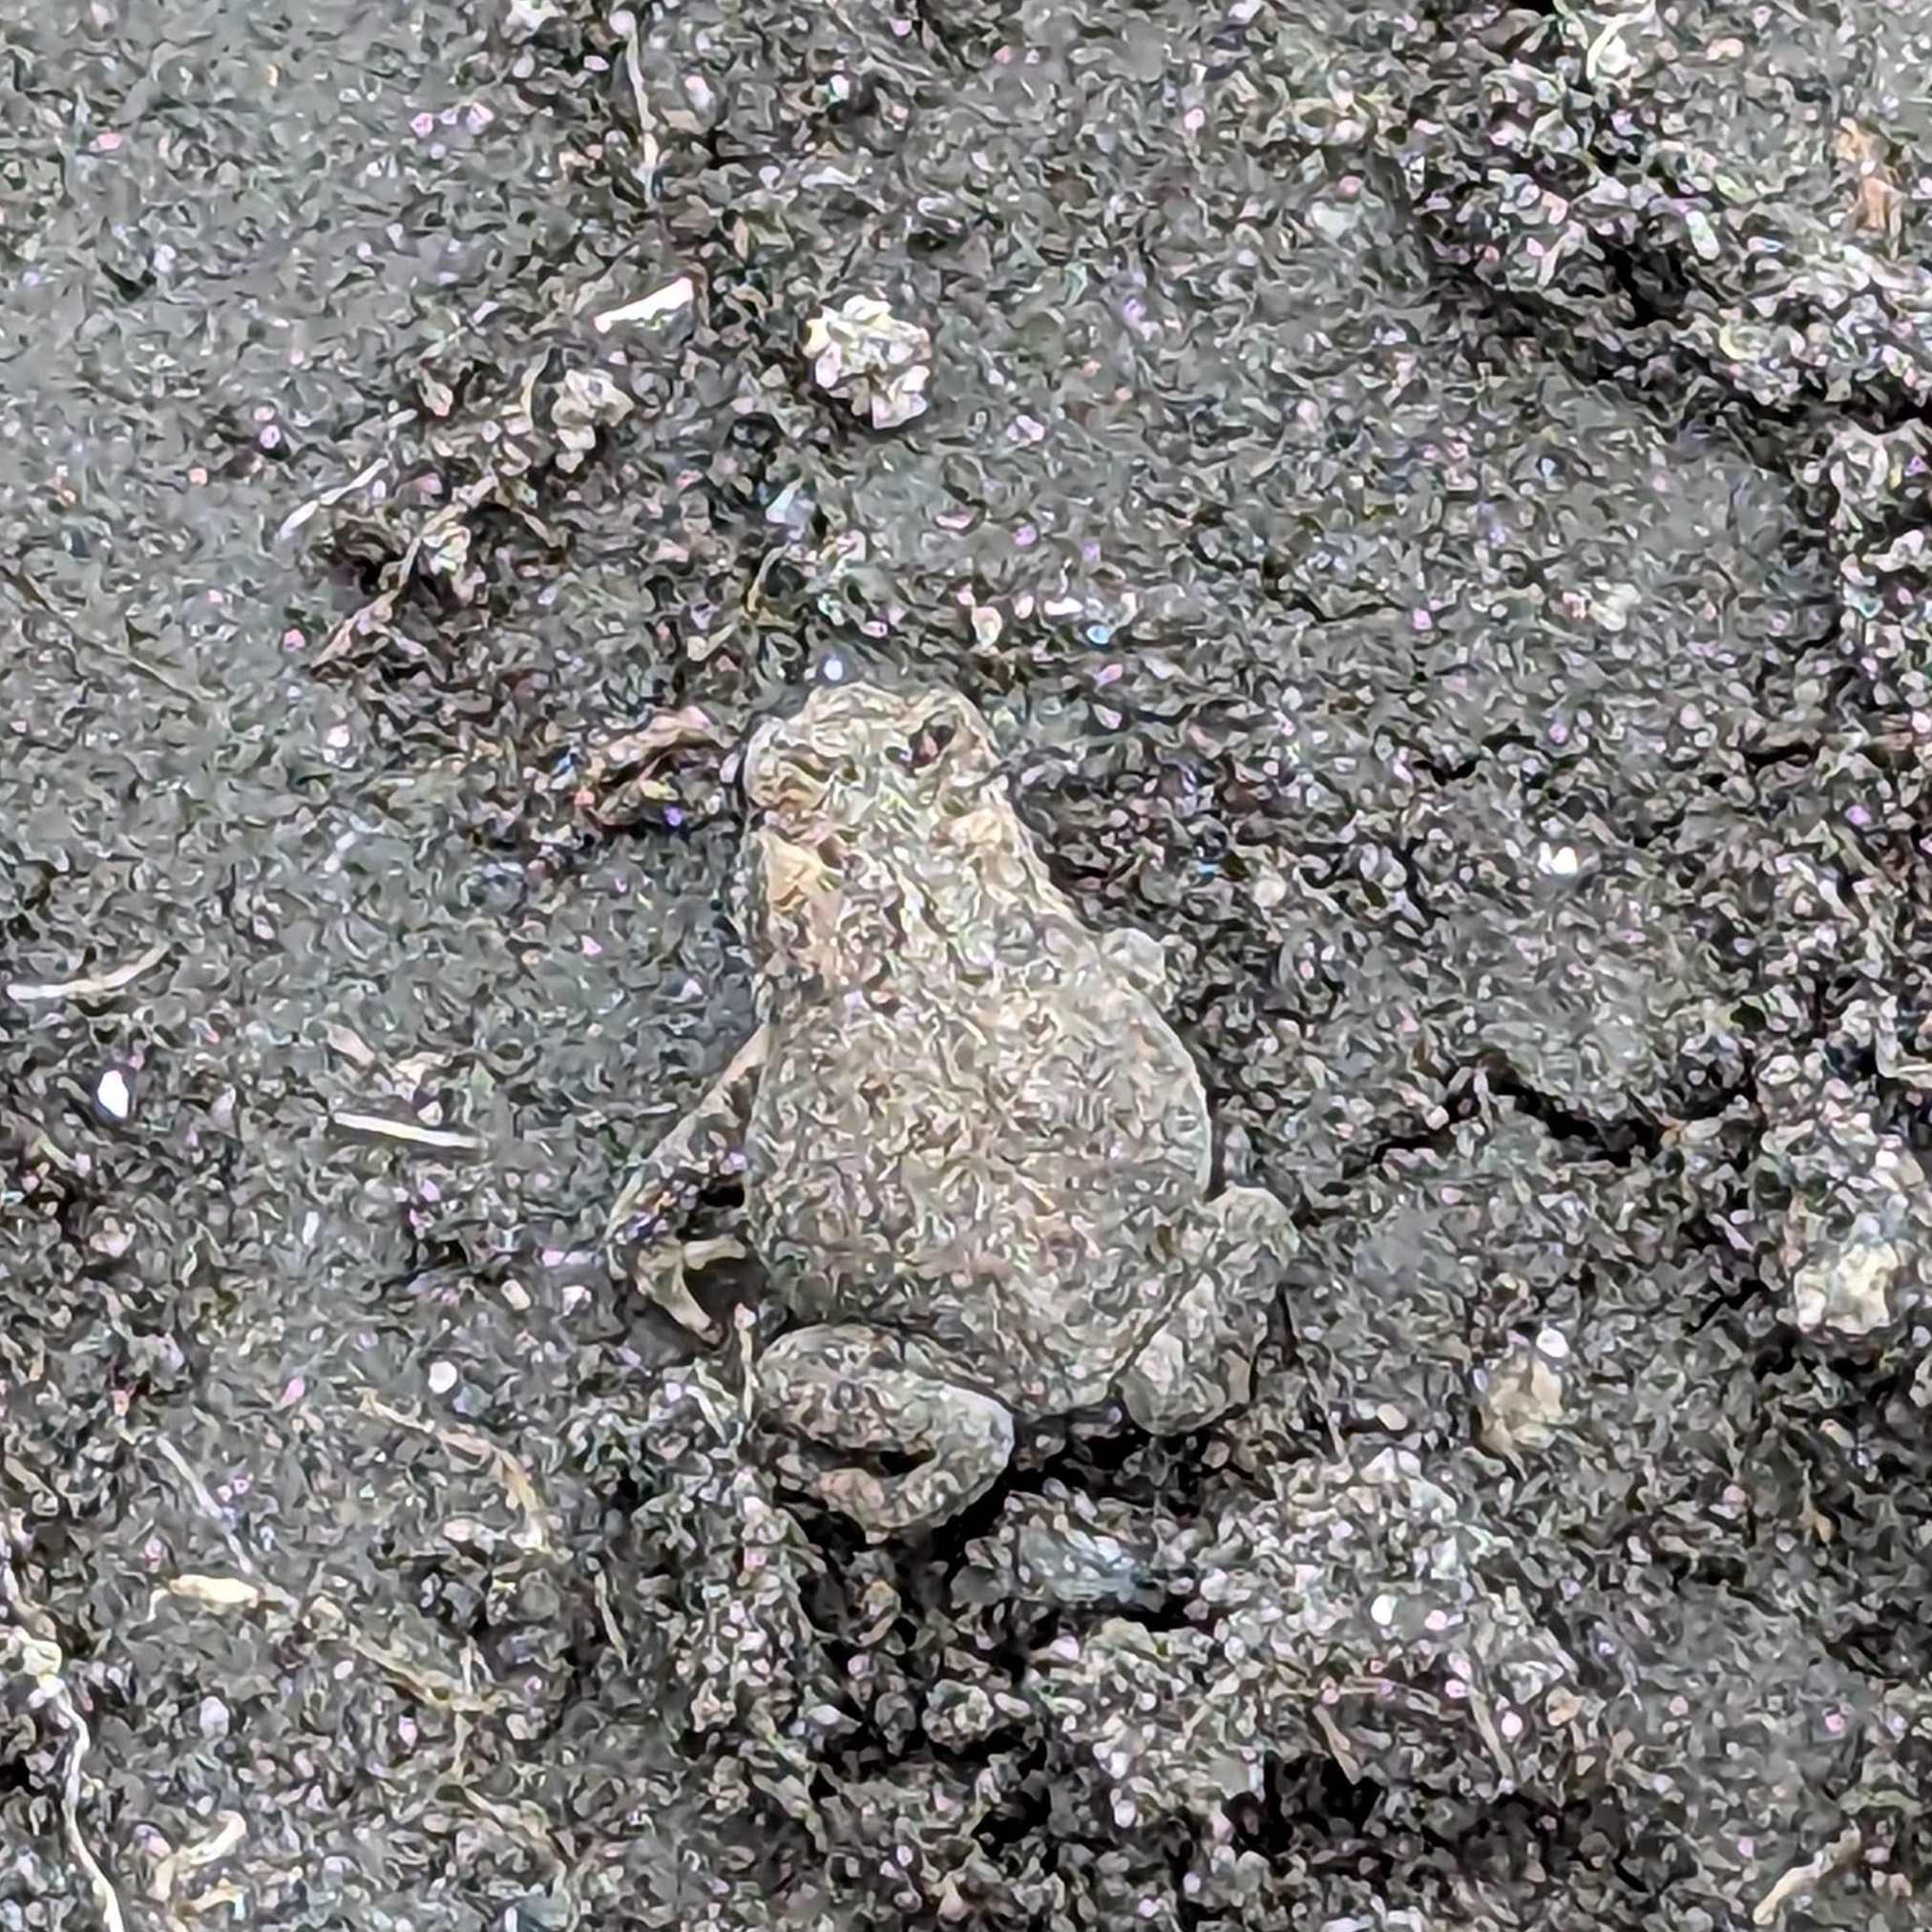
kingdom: Animalia
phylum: Chordata
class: Amphibia
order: Anura
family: Bufonidae
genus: Anaxyrus
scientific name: Anaxyrus americanus
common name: American toad
